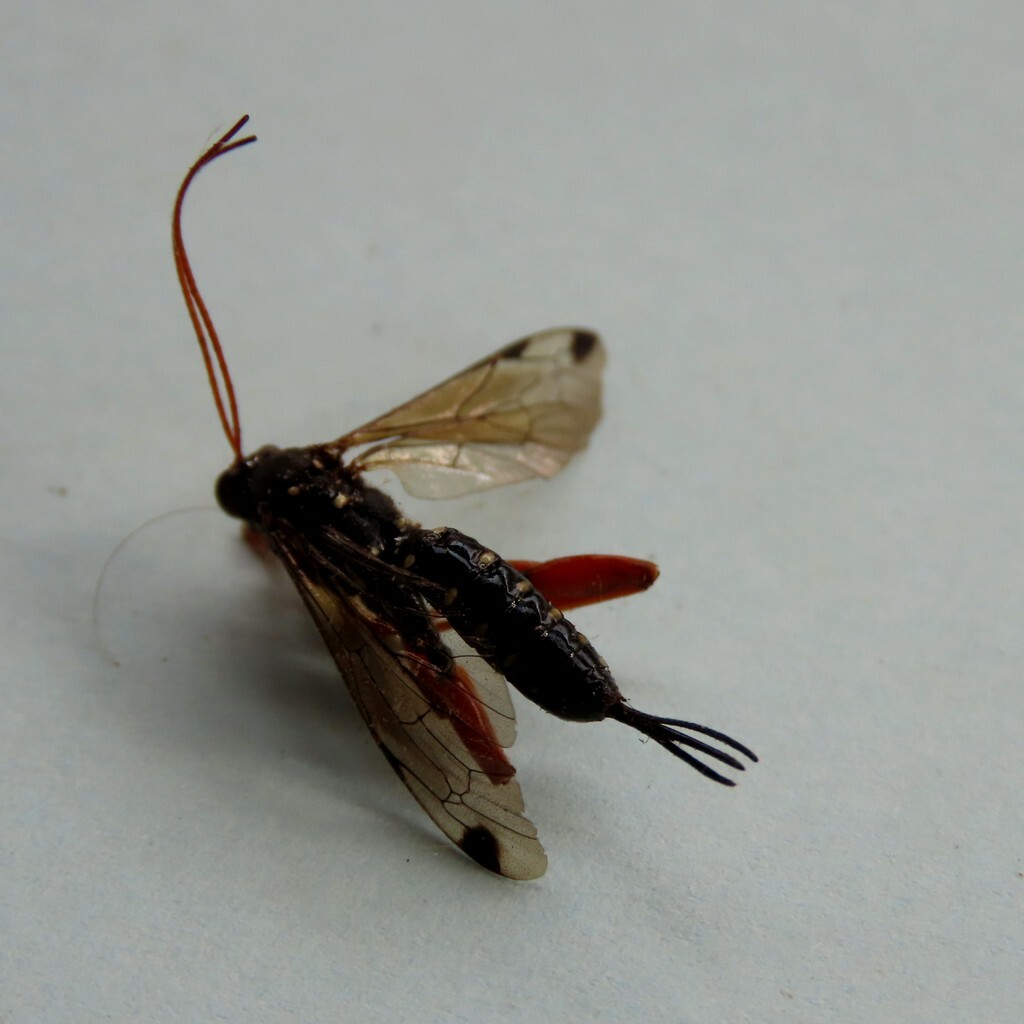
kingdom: Animalia
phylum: Arthropoda
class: Insecta
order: Hymenoptera
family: Ichneumonidae
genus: Echthromorpha
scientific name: Echthromorpha intricatoria
